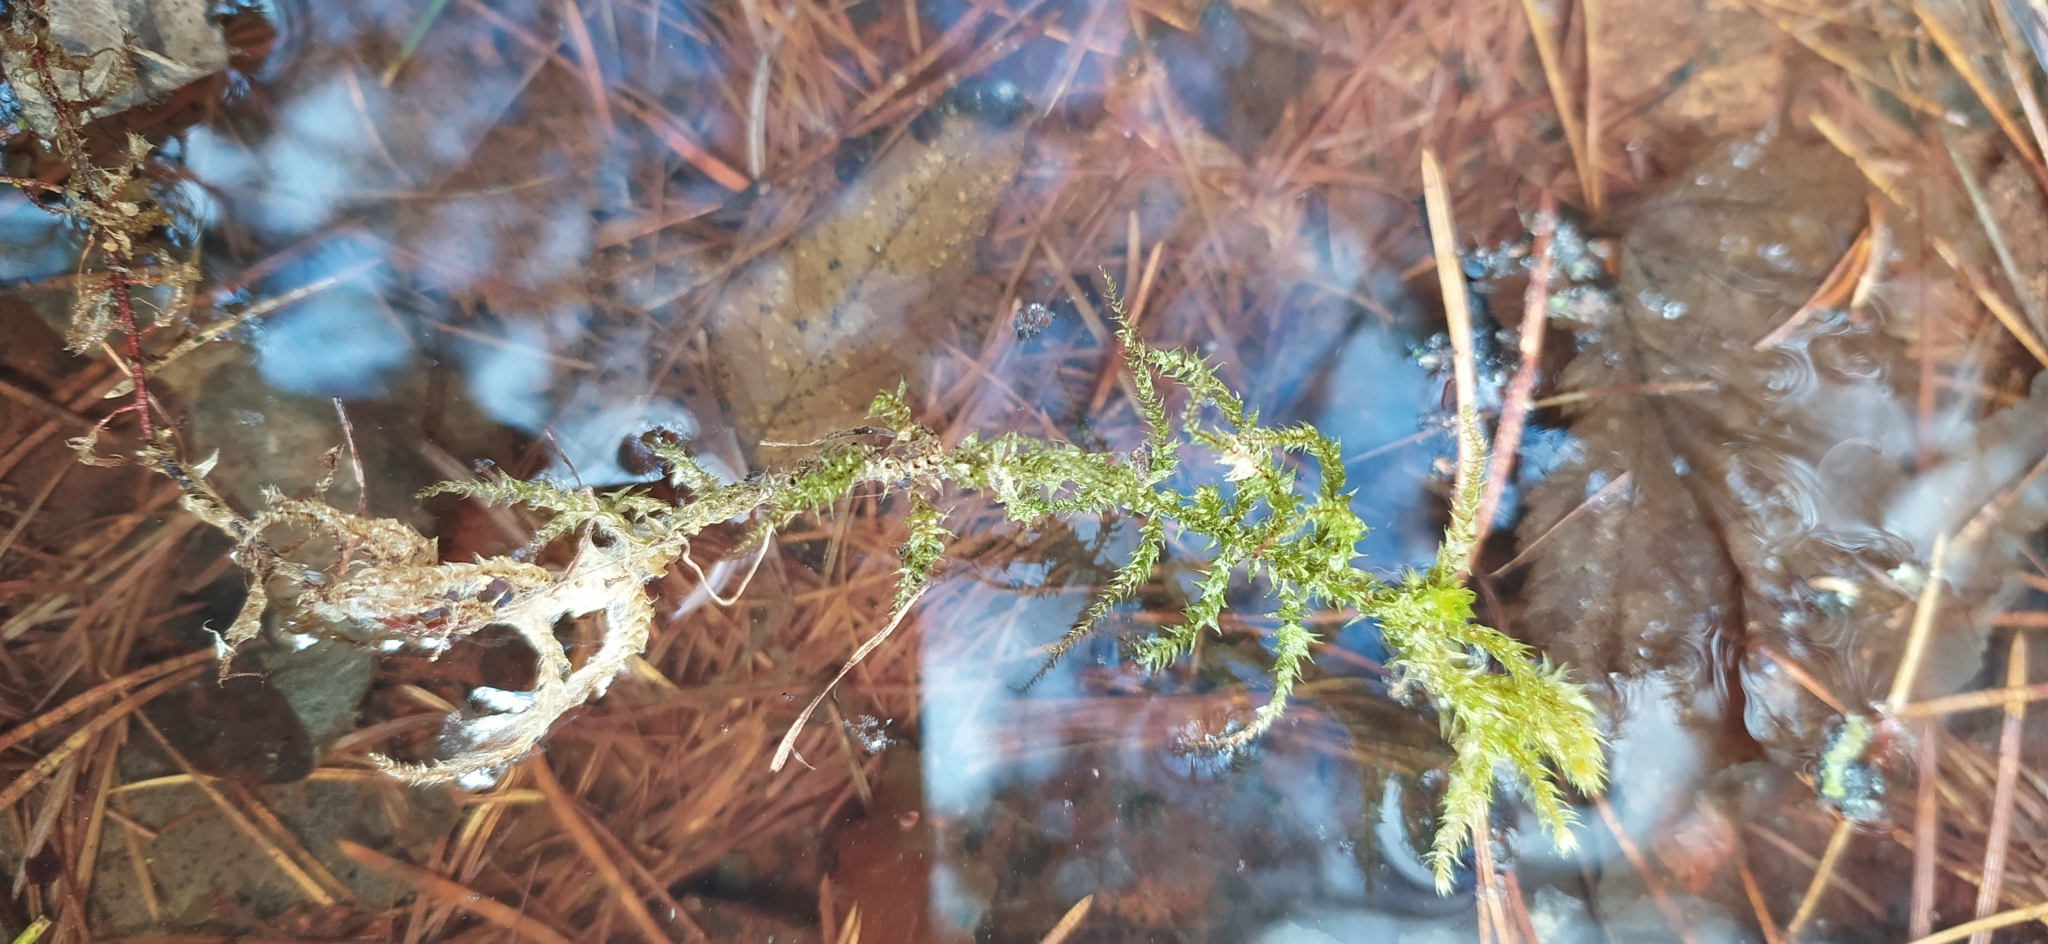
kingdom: Plantae
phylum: Bryophyta
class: Bryopsida
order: Hypnales
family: Hylocomiaceae
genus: Hylocomiadelphus
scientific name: Hylocomiadelphus triquetrus
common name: Rough goose neck moss
